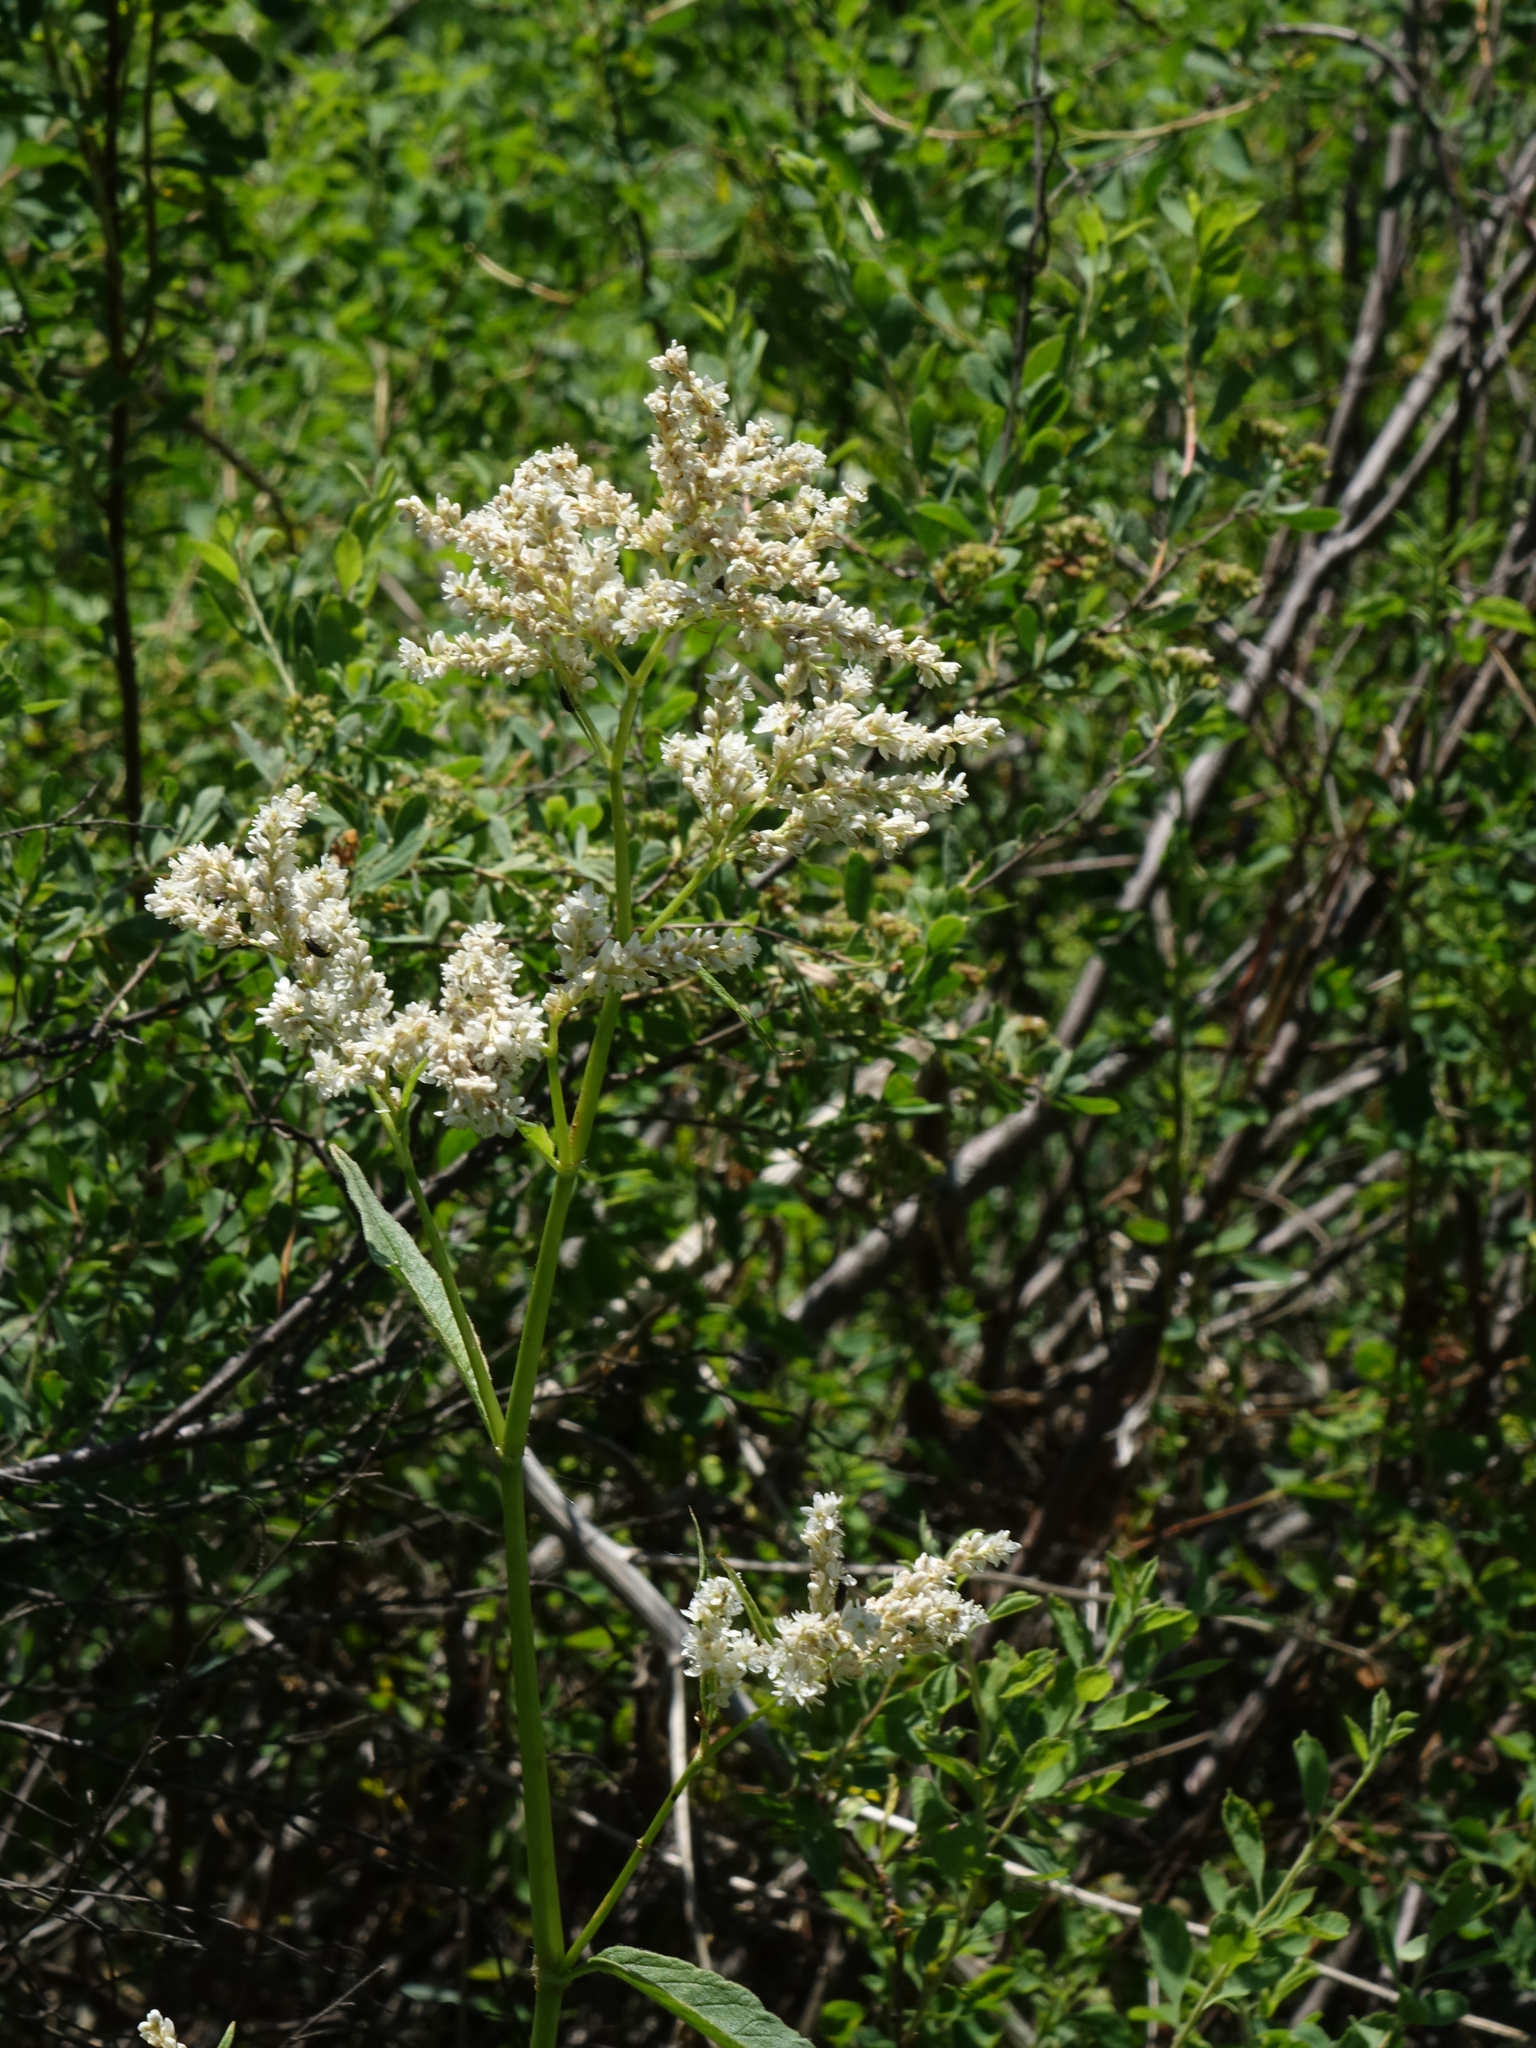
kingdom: Plantae
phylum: Tracheophyta
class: Magnoliopsida
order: Caryophyllales
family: Polygonaceae
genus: Koenigia
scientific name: Koenigia alpina
